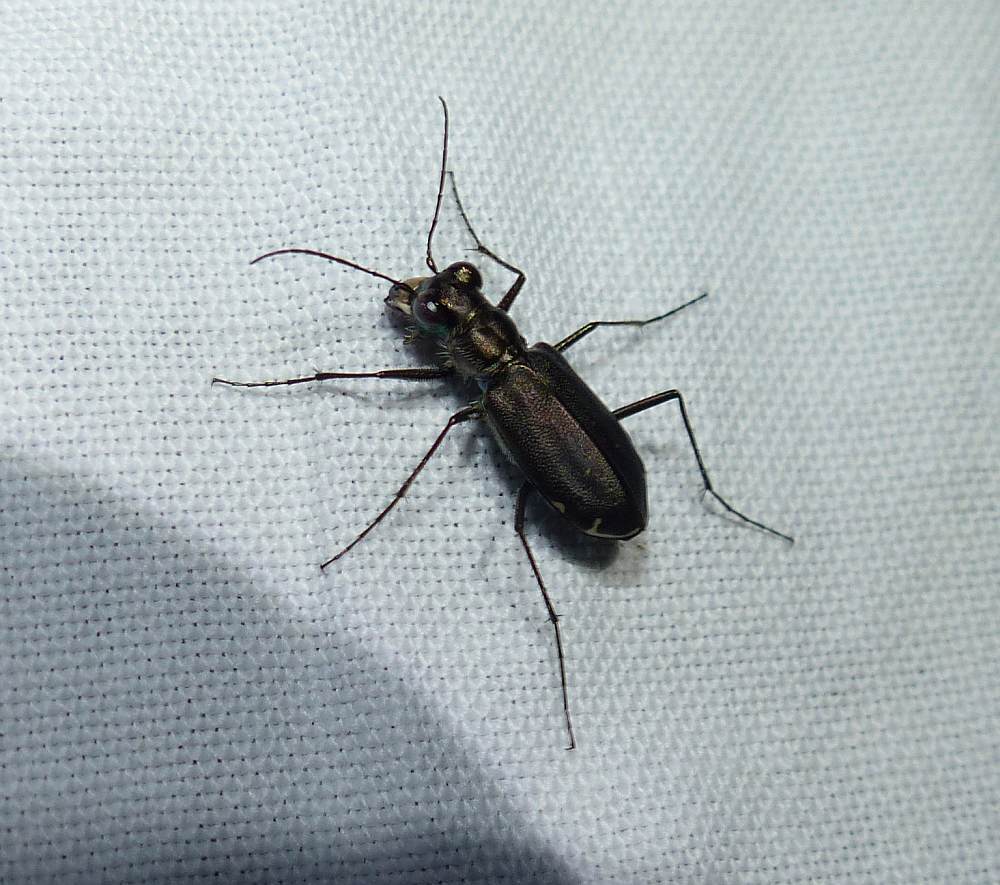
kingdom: Animalia
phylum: Arthropoda
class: Insecta
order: Coleoptera
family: Carabidae
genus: Cicindela
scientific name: Cicindela punctulata
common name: Punctured tiger beetle
